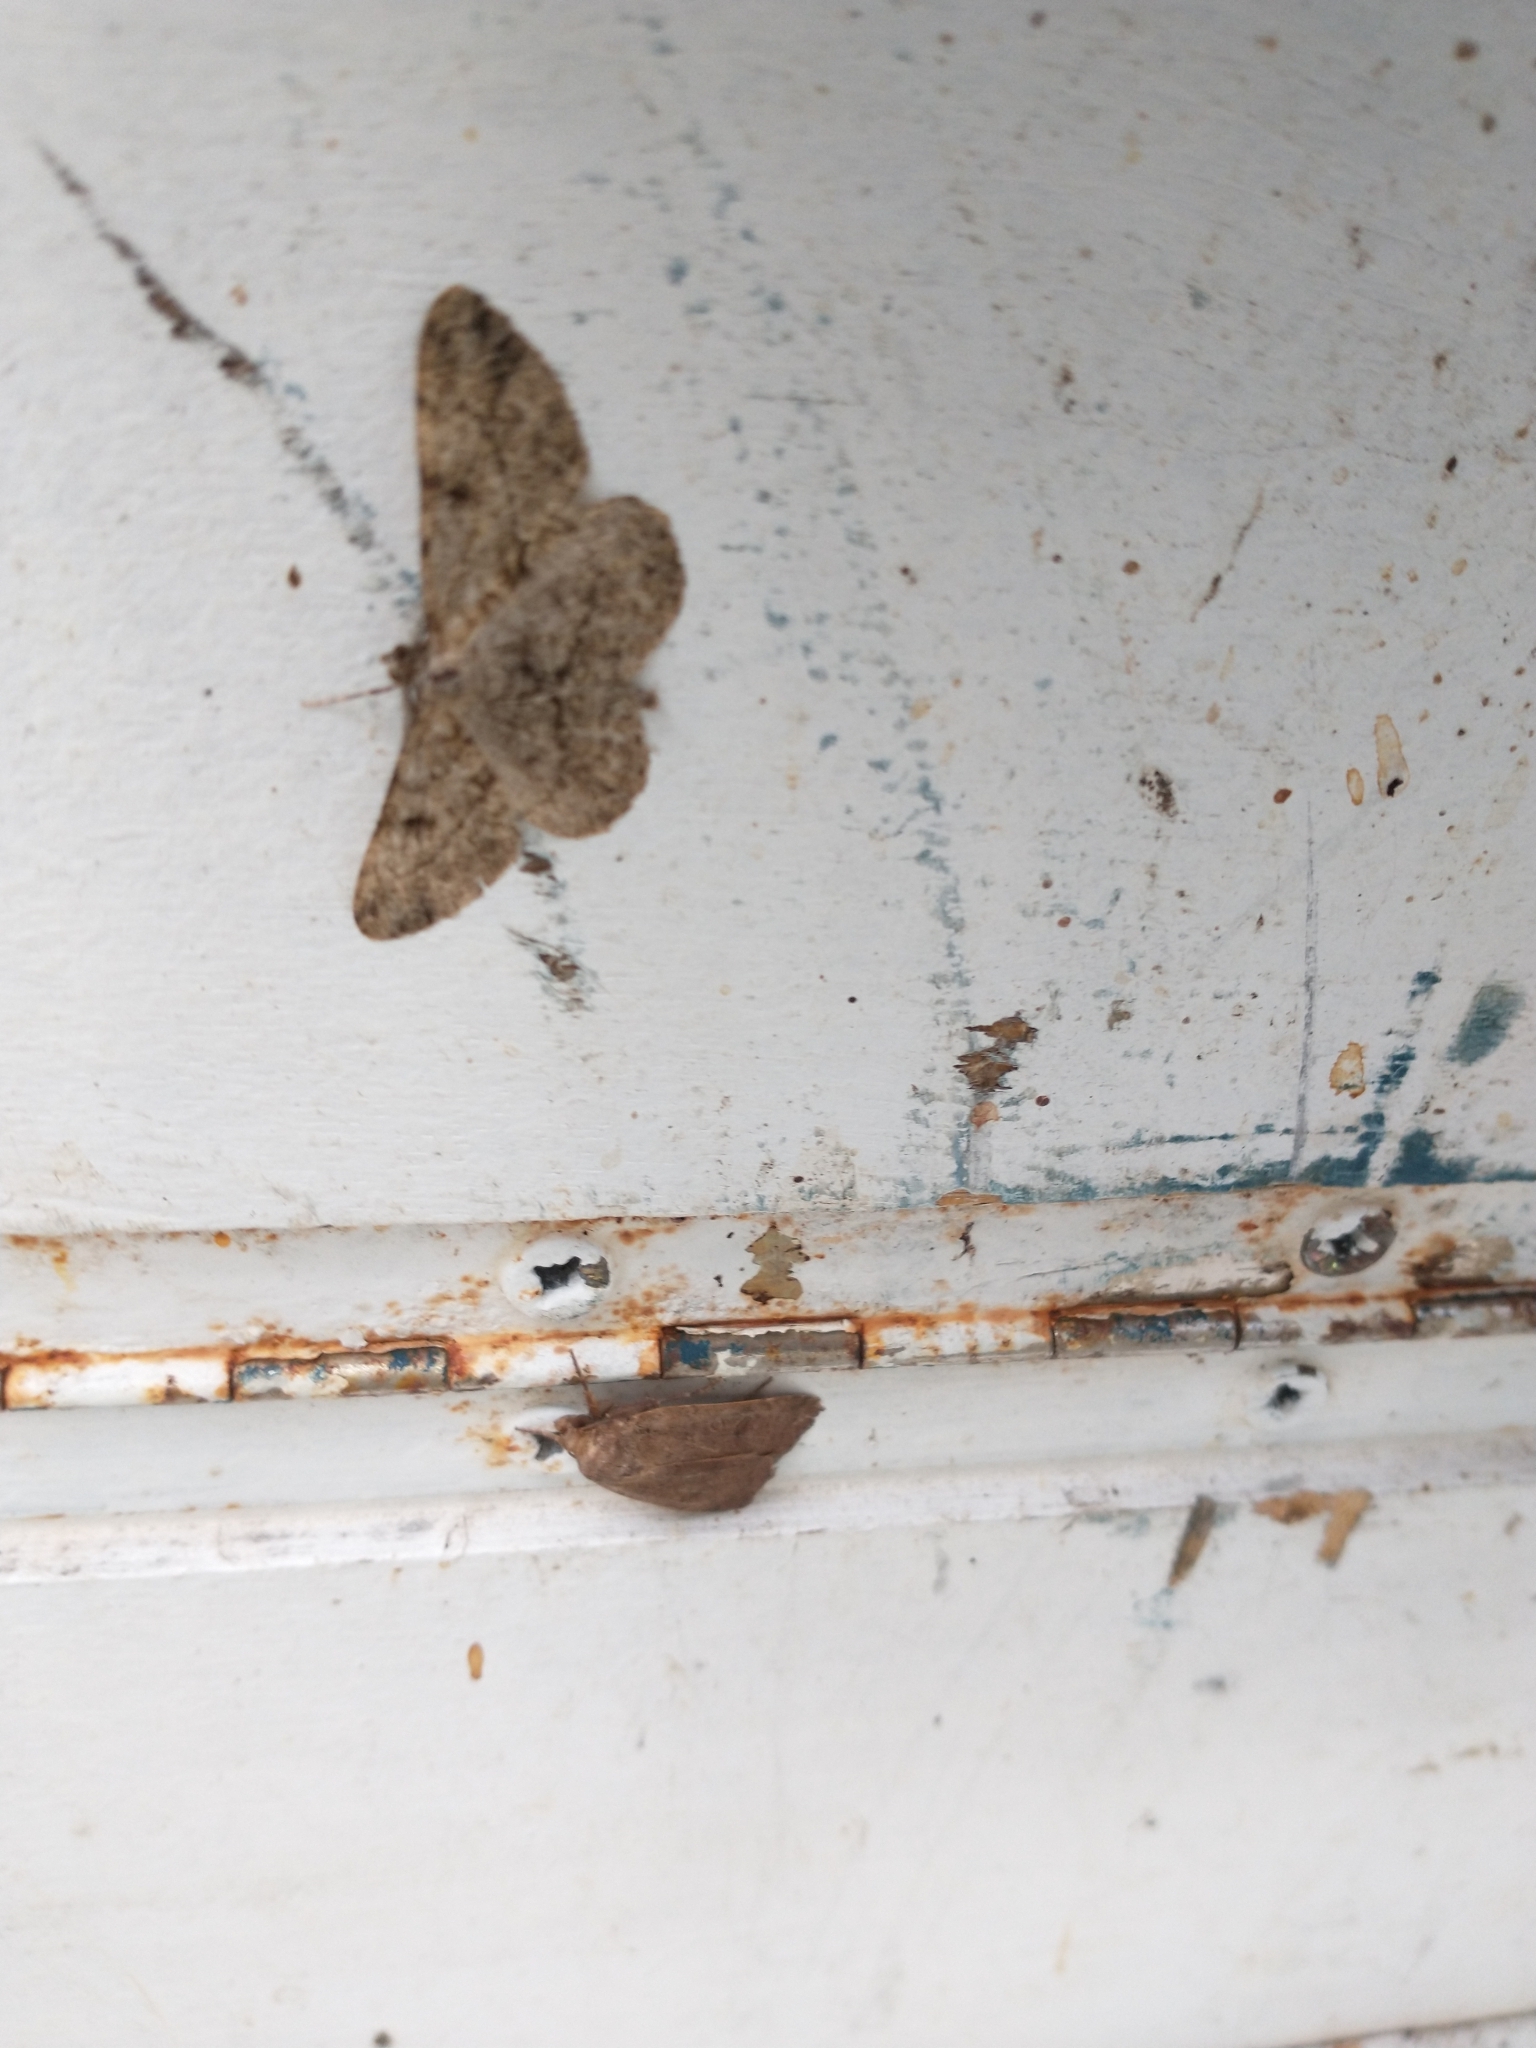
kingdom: Animalia
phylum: Arthropoda
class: Insecta
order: Lepidoptera
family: Geometridae
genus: Peribatodes
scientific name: Peribatodes rhomboidaria
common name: Willow beauty
